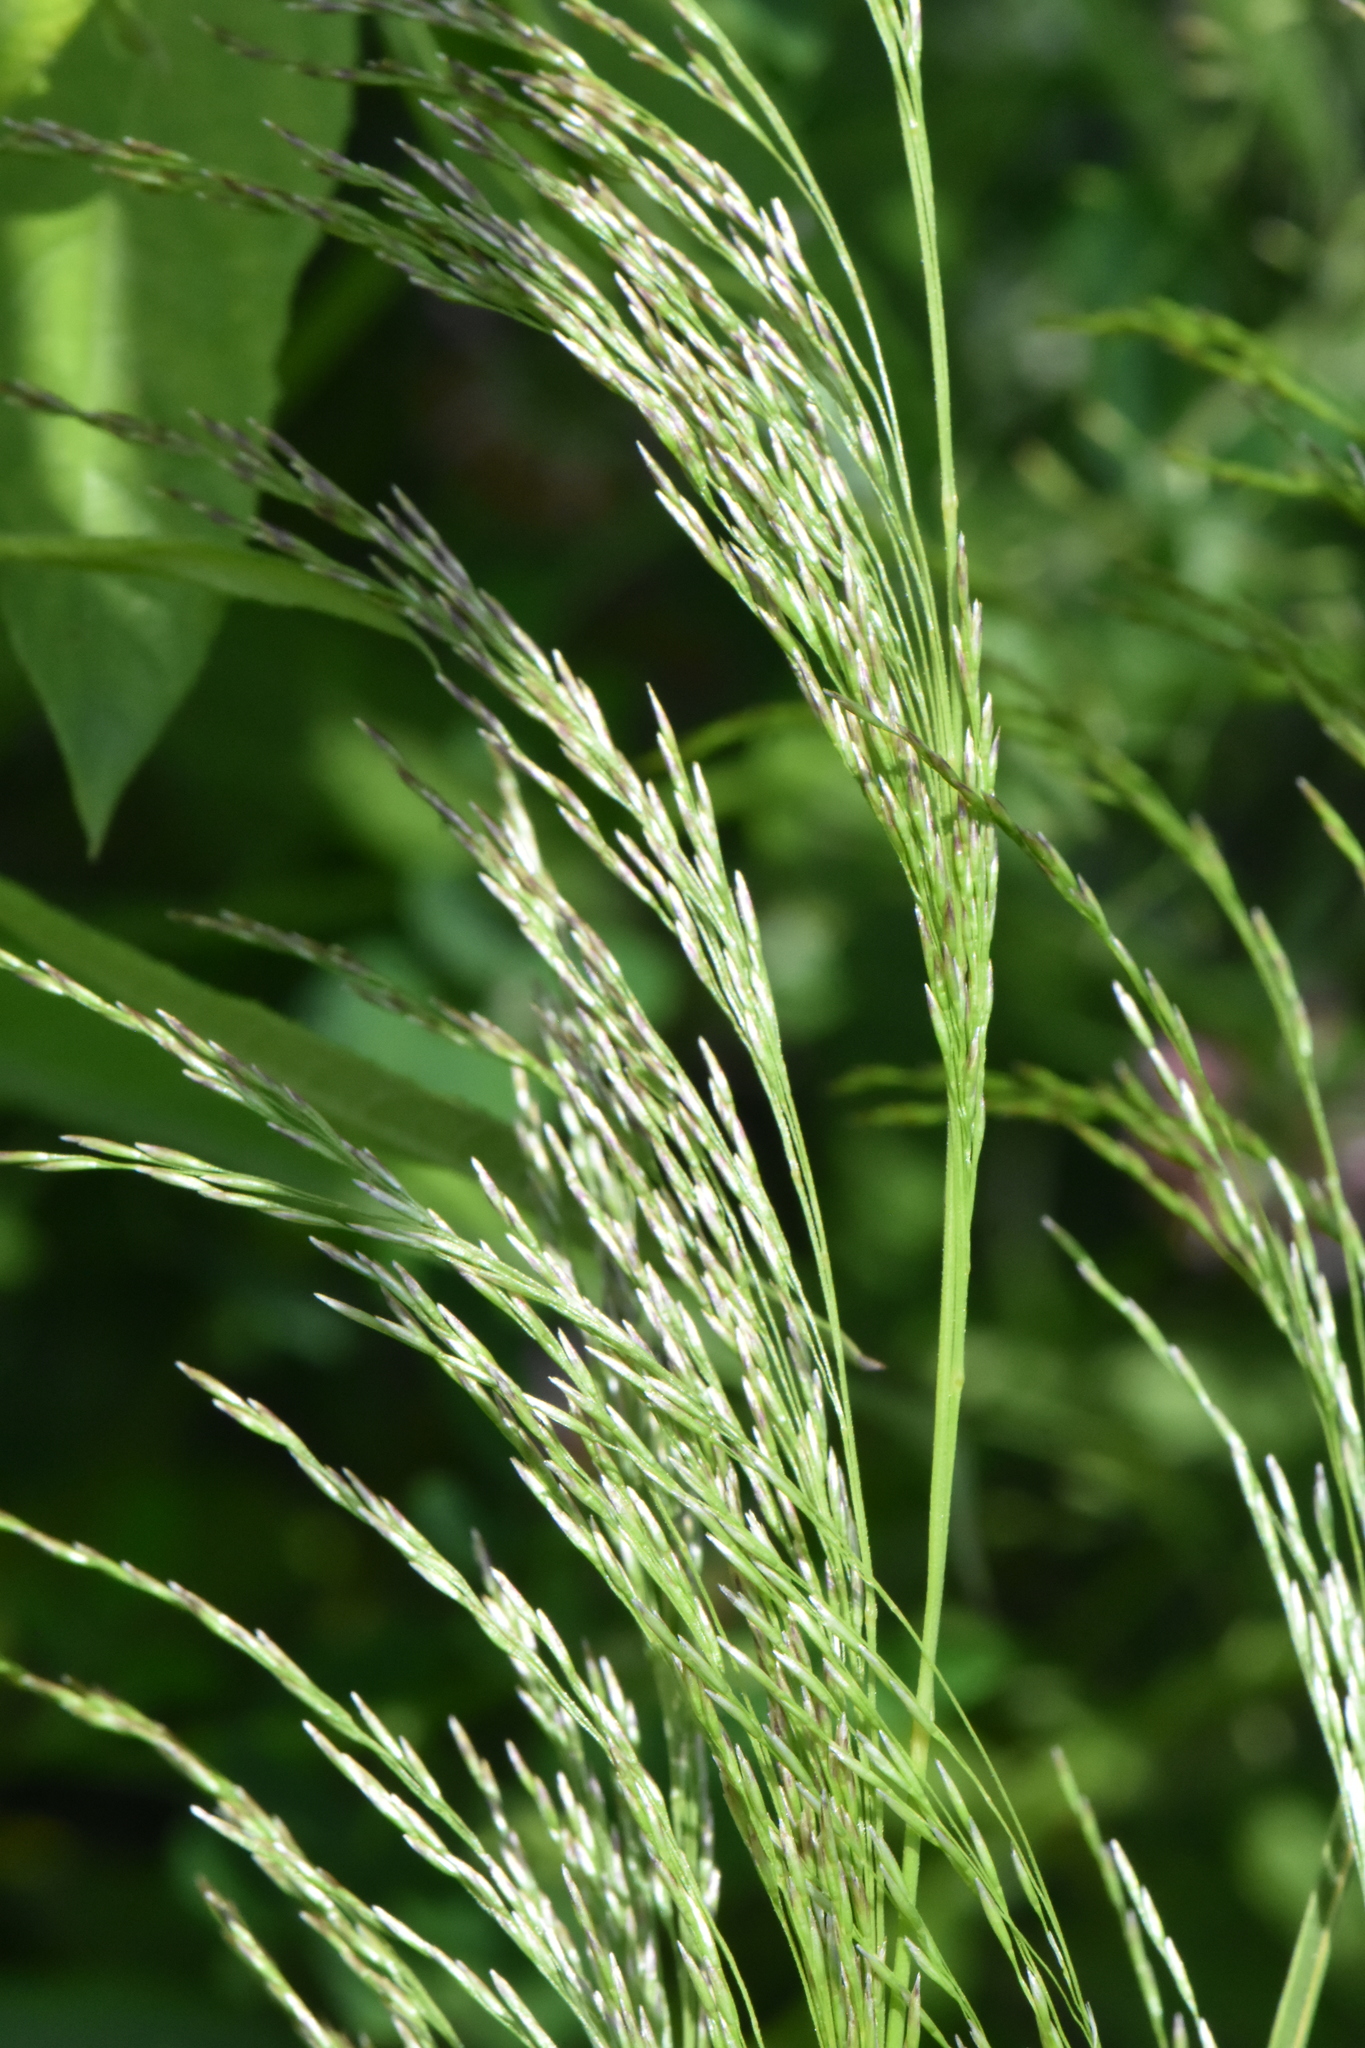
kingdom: Plantae
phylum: Tracheophyta
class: Liliopsida
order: Poales
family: Poaceae
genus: Deschampsia
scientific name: Deschampsia cespitosa
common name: Tufted hair-grass
